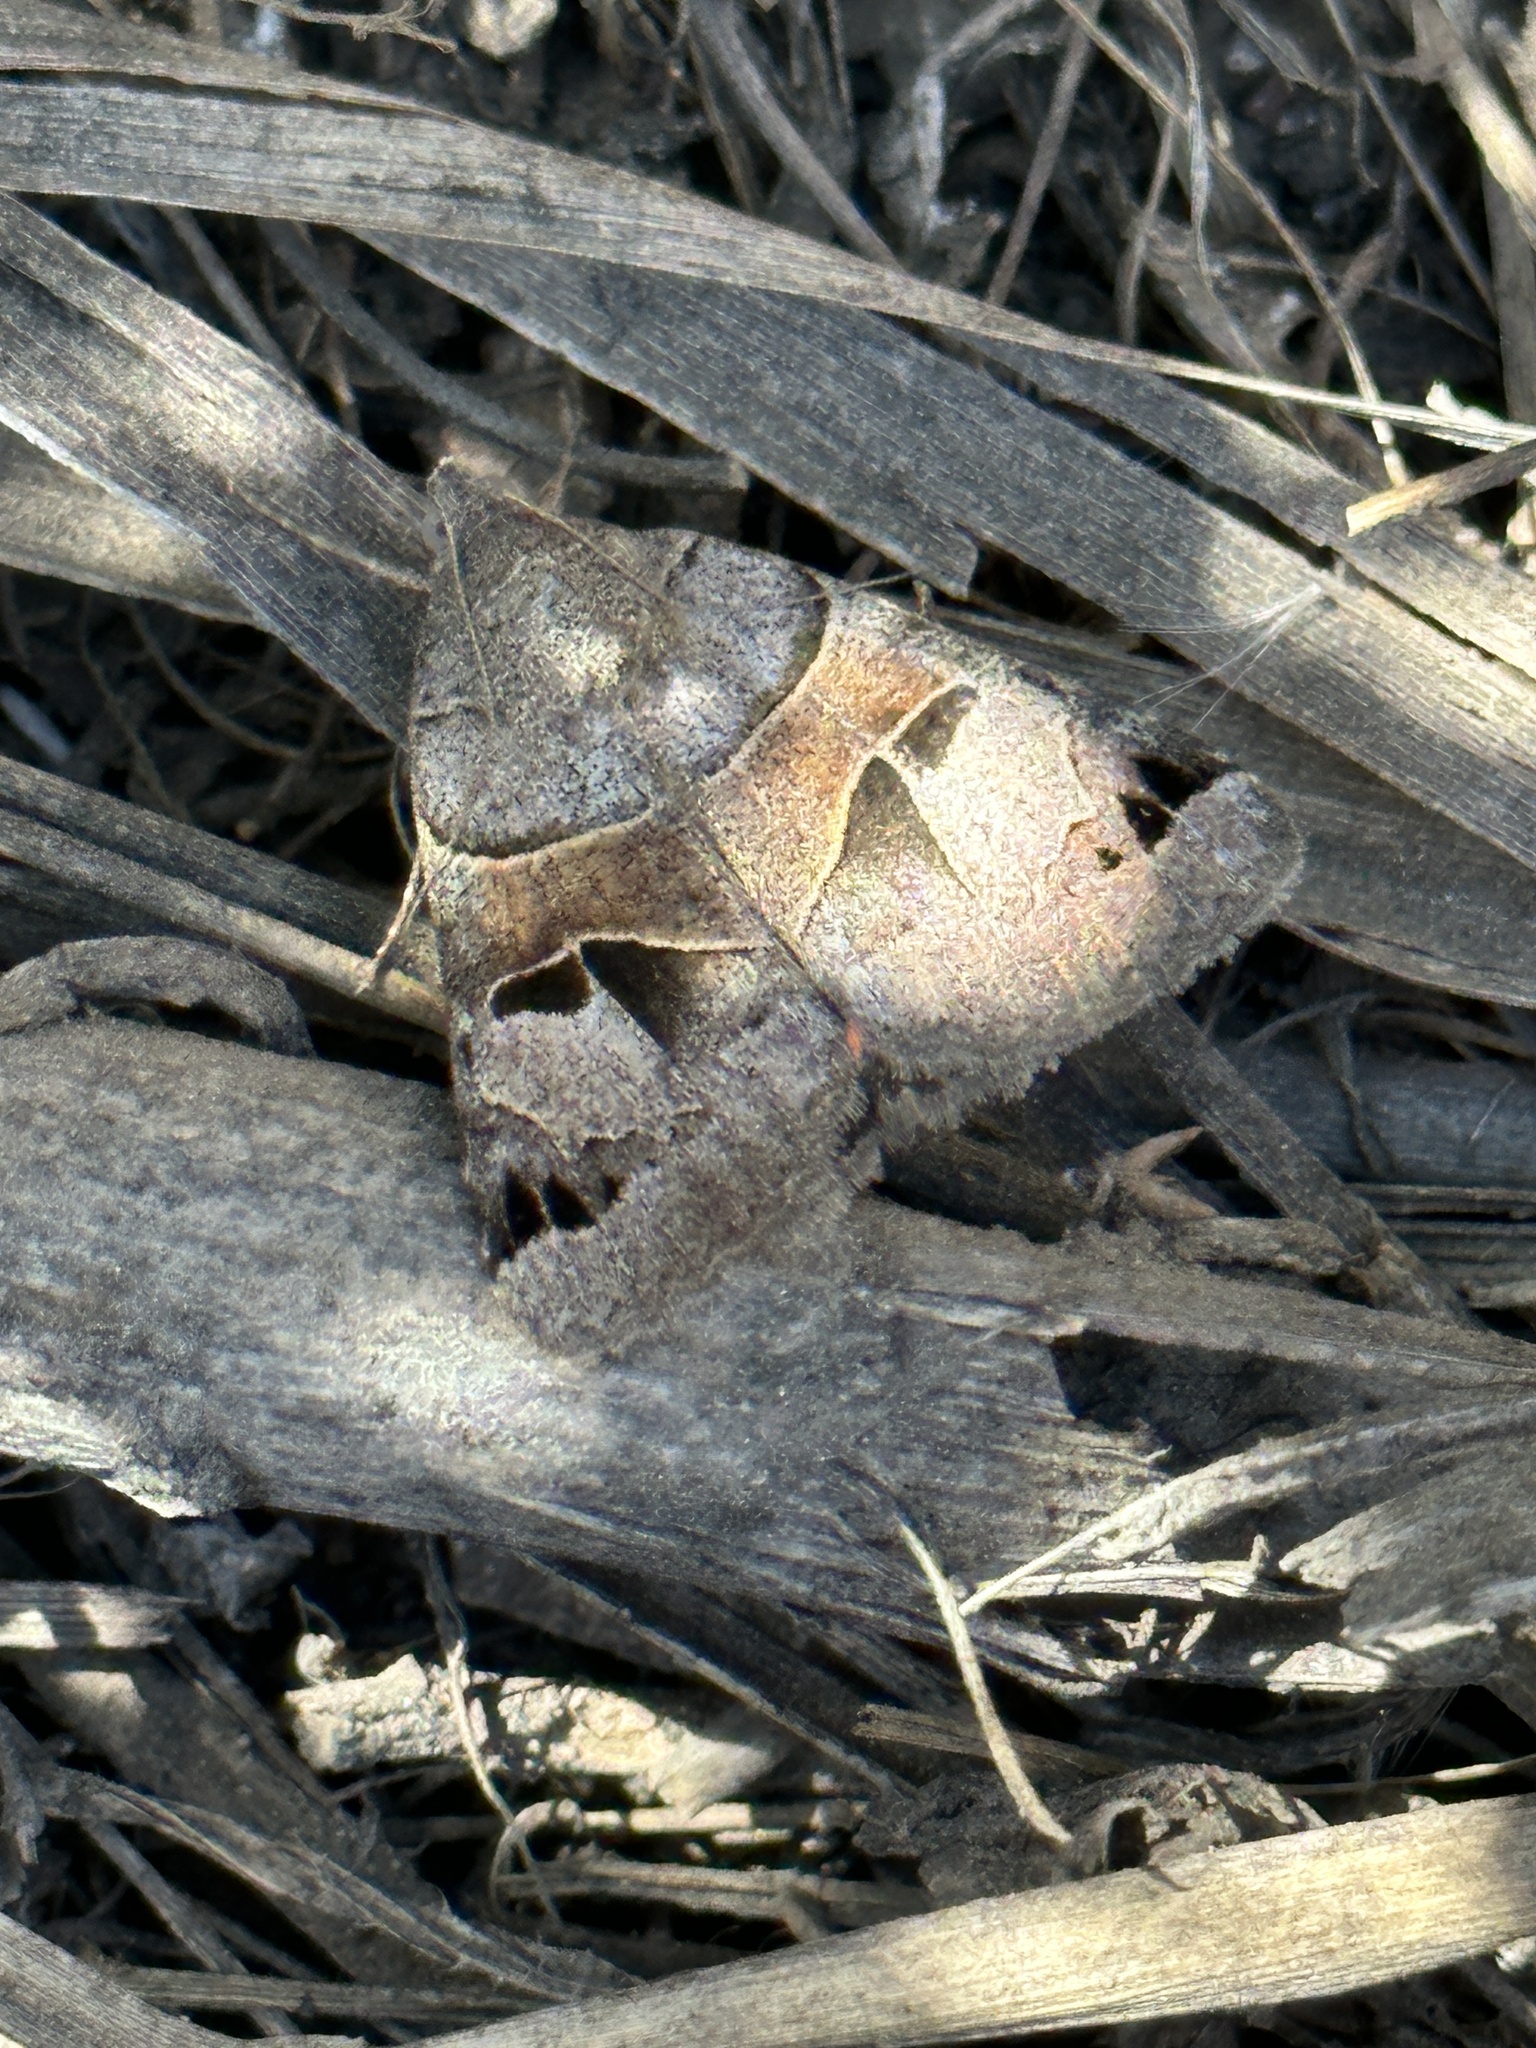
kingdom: Animalia
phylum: Arthropoda
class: Insecta
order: Lepidoptera
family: Erebidae
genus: Drasteria
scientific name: Drasteria edwardsii
